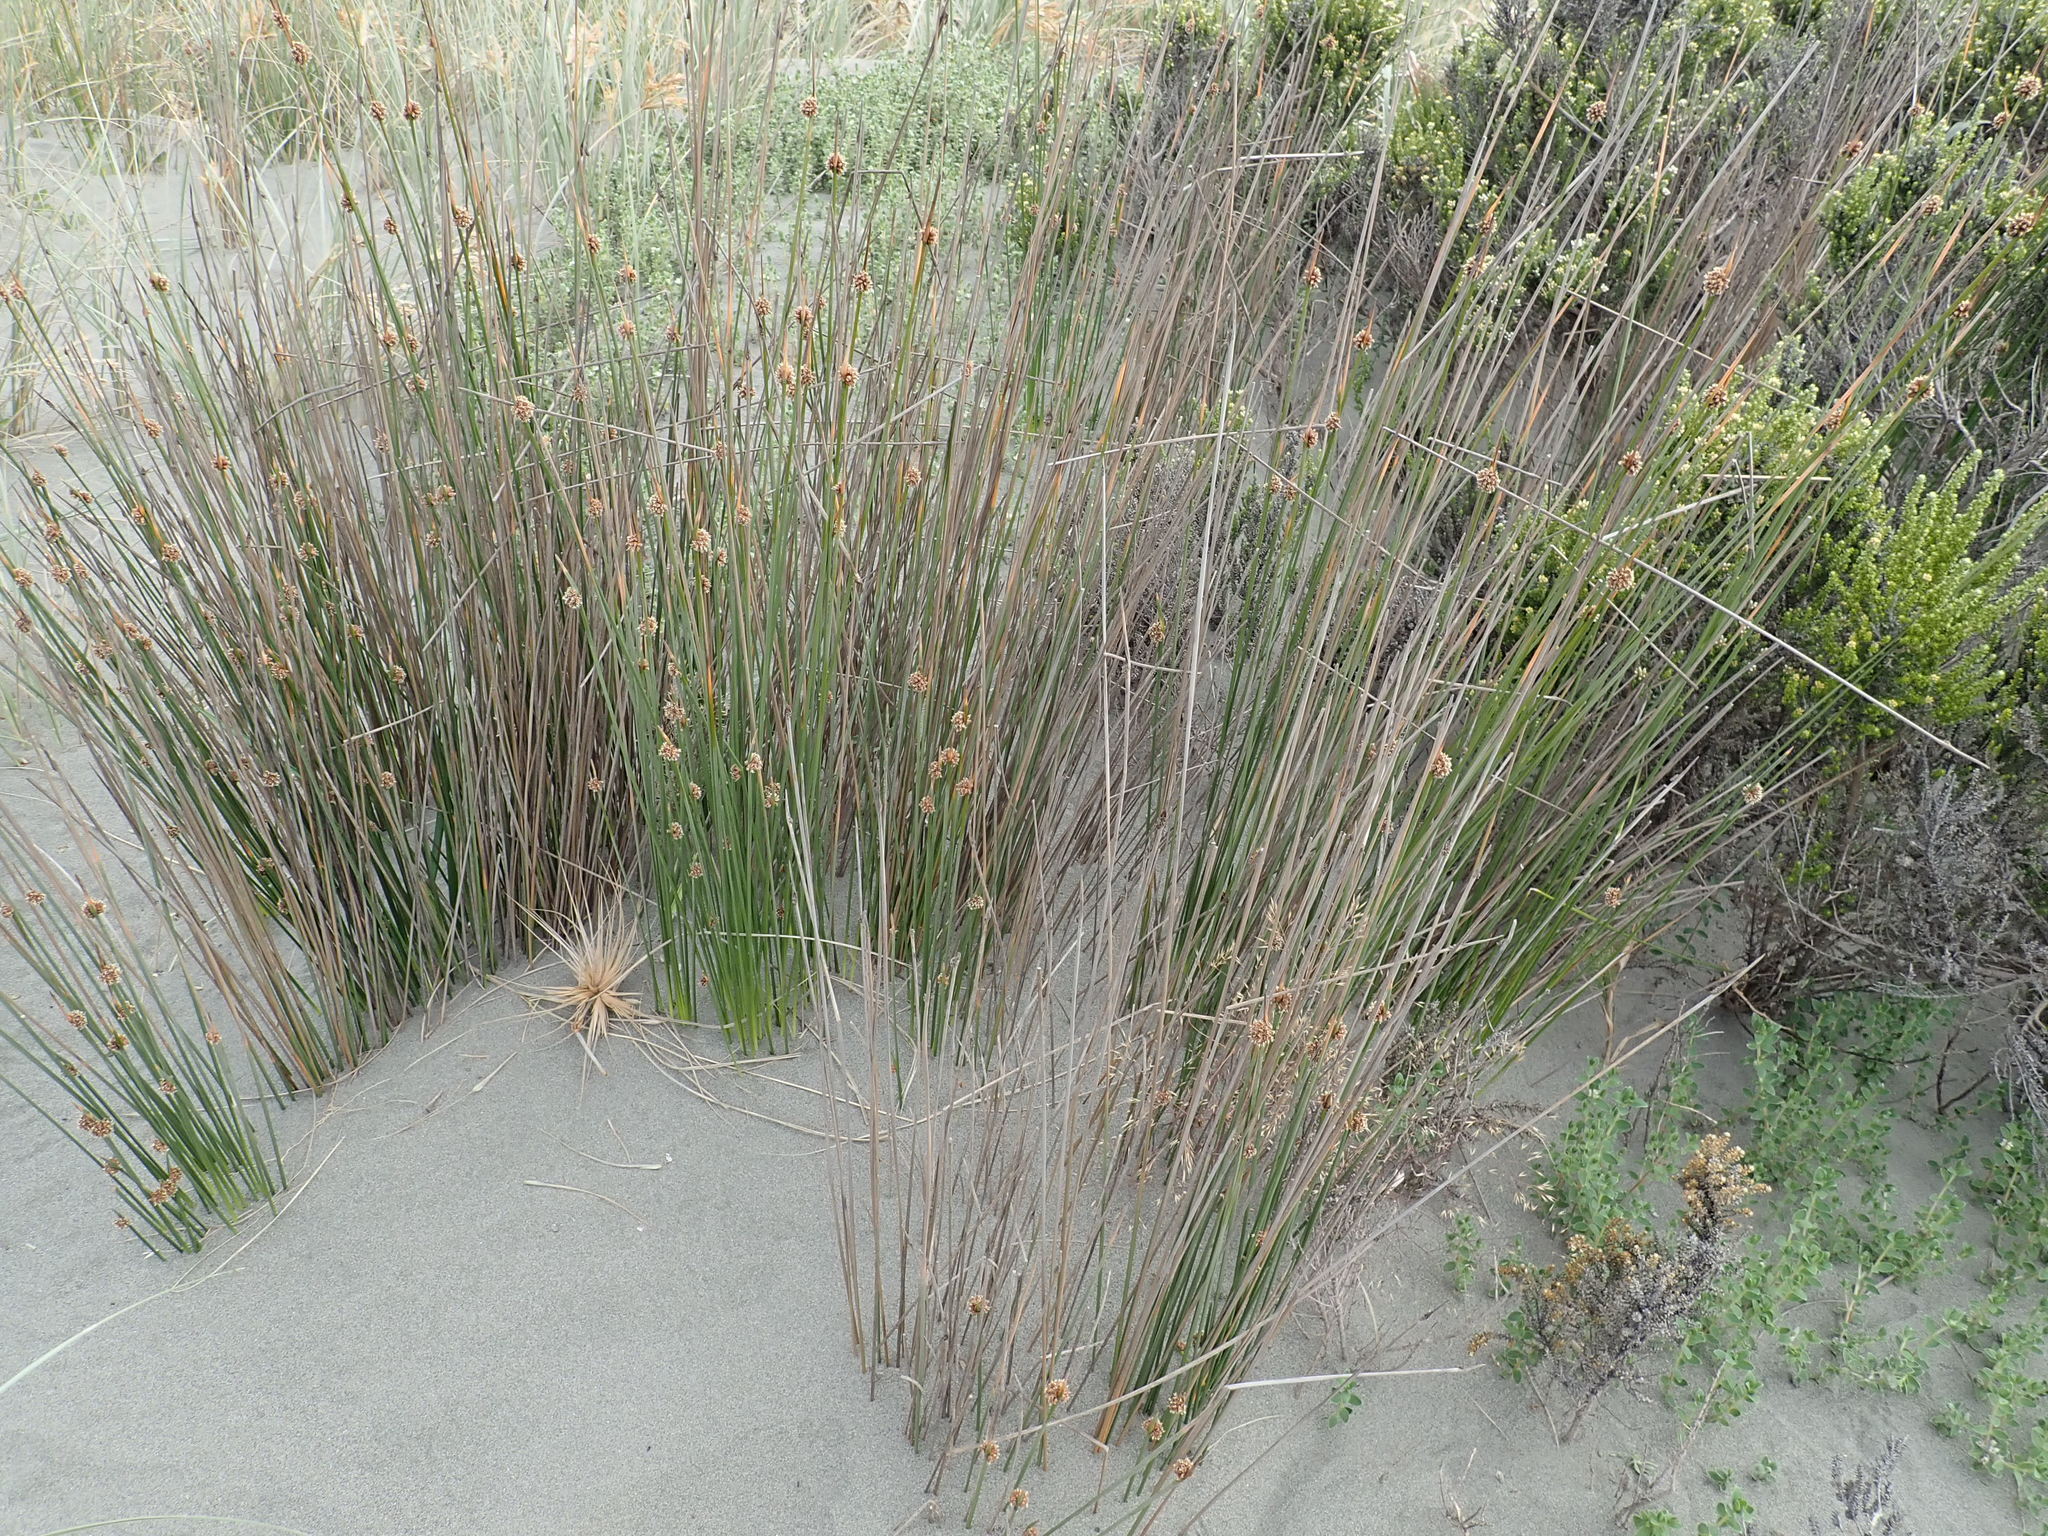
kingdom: Plantae
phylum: Tracheophyta
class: Liliopsida
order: Poales
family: Cyperaceae
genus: Ficinia
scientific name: Ficinia nodosa
